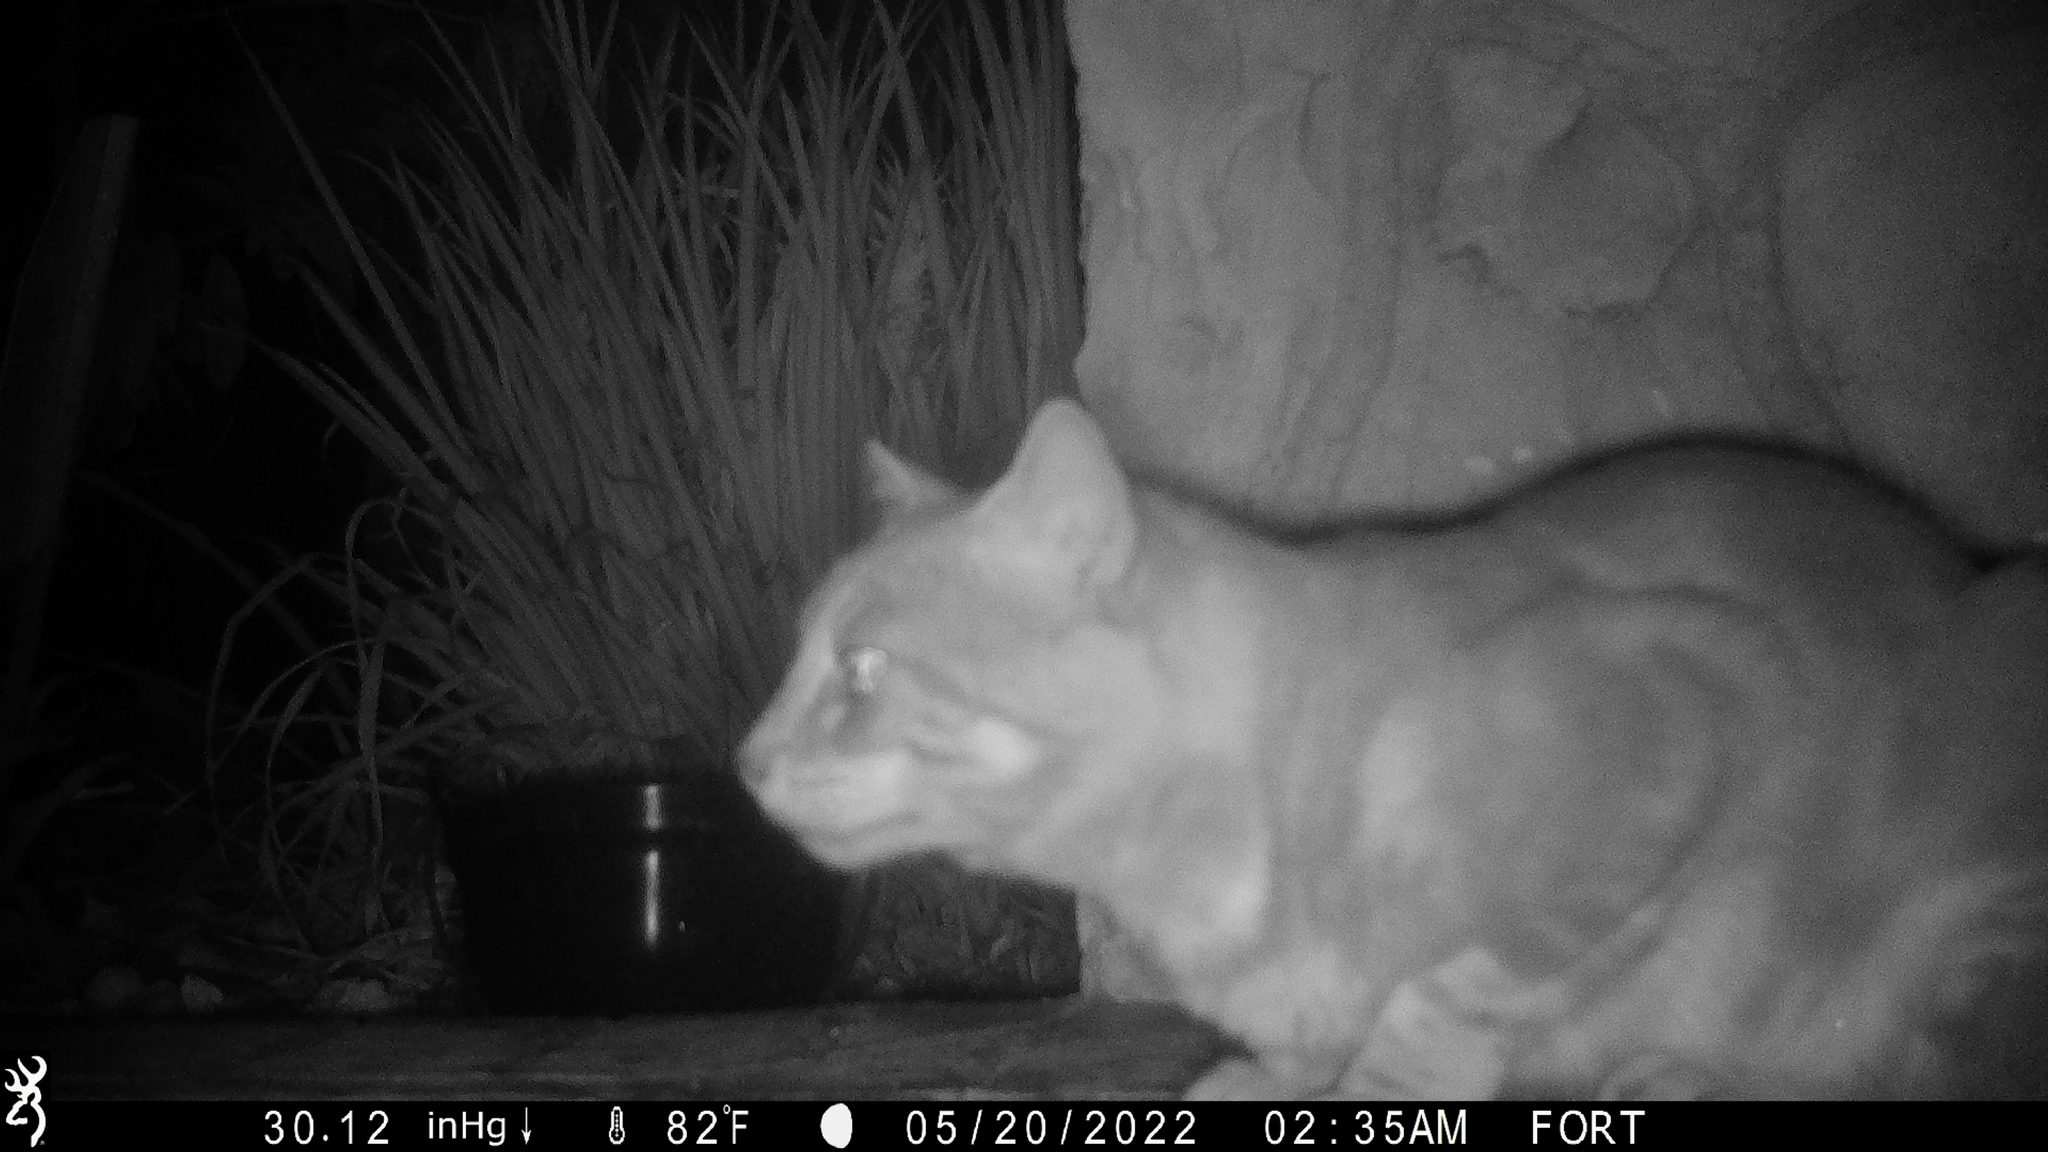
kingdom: Animalia
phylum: Chordata
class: Mammalia
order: Carnivora
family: Felidae
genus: Felis
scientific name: Felis catus
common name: Domestic cat
